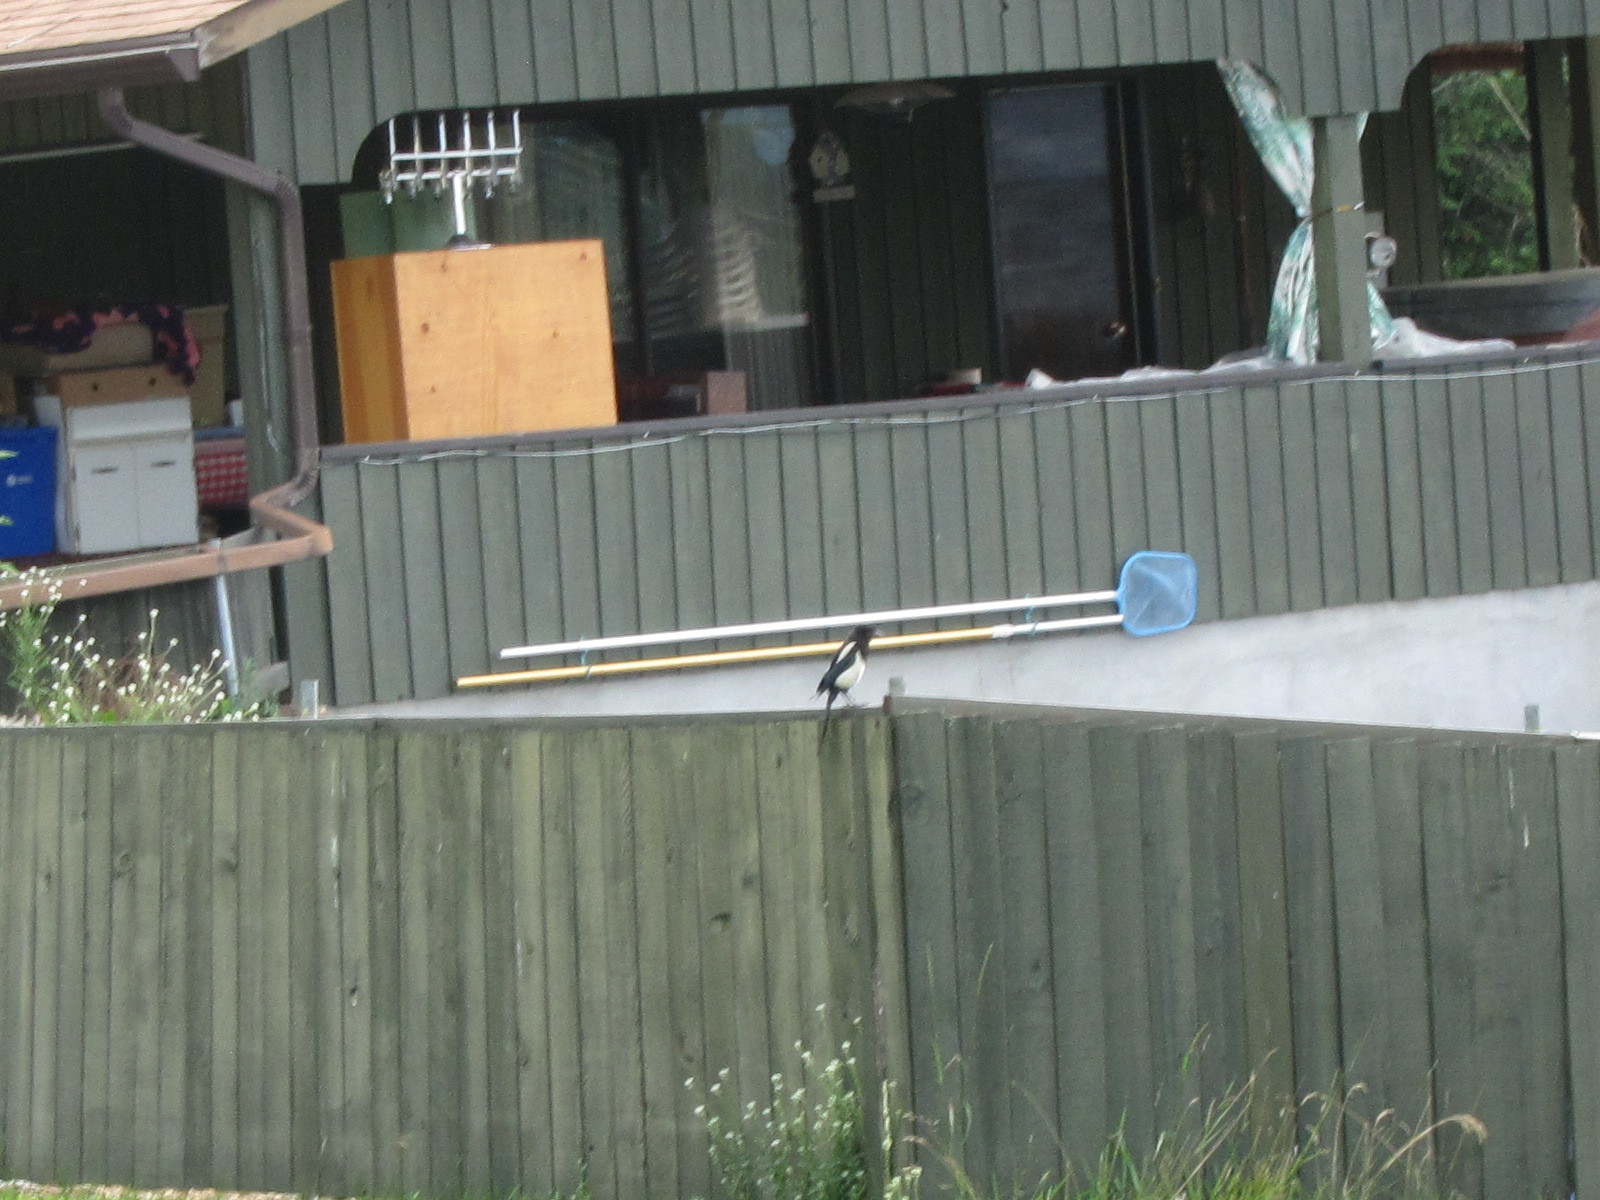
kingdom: Animalia
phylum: Chordata
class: Aves
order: Passeriformes
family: Corvidae
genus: Pica
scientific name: Pica hudsonia
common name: Black-billed magpie
